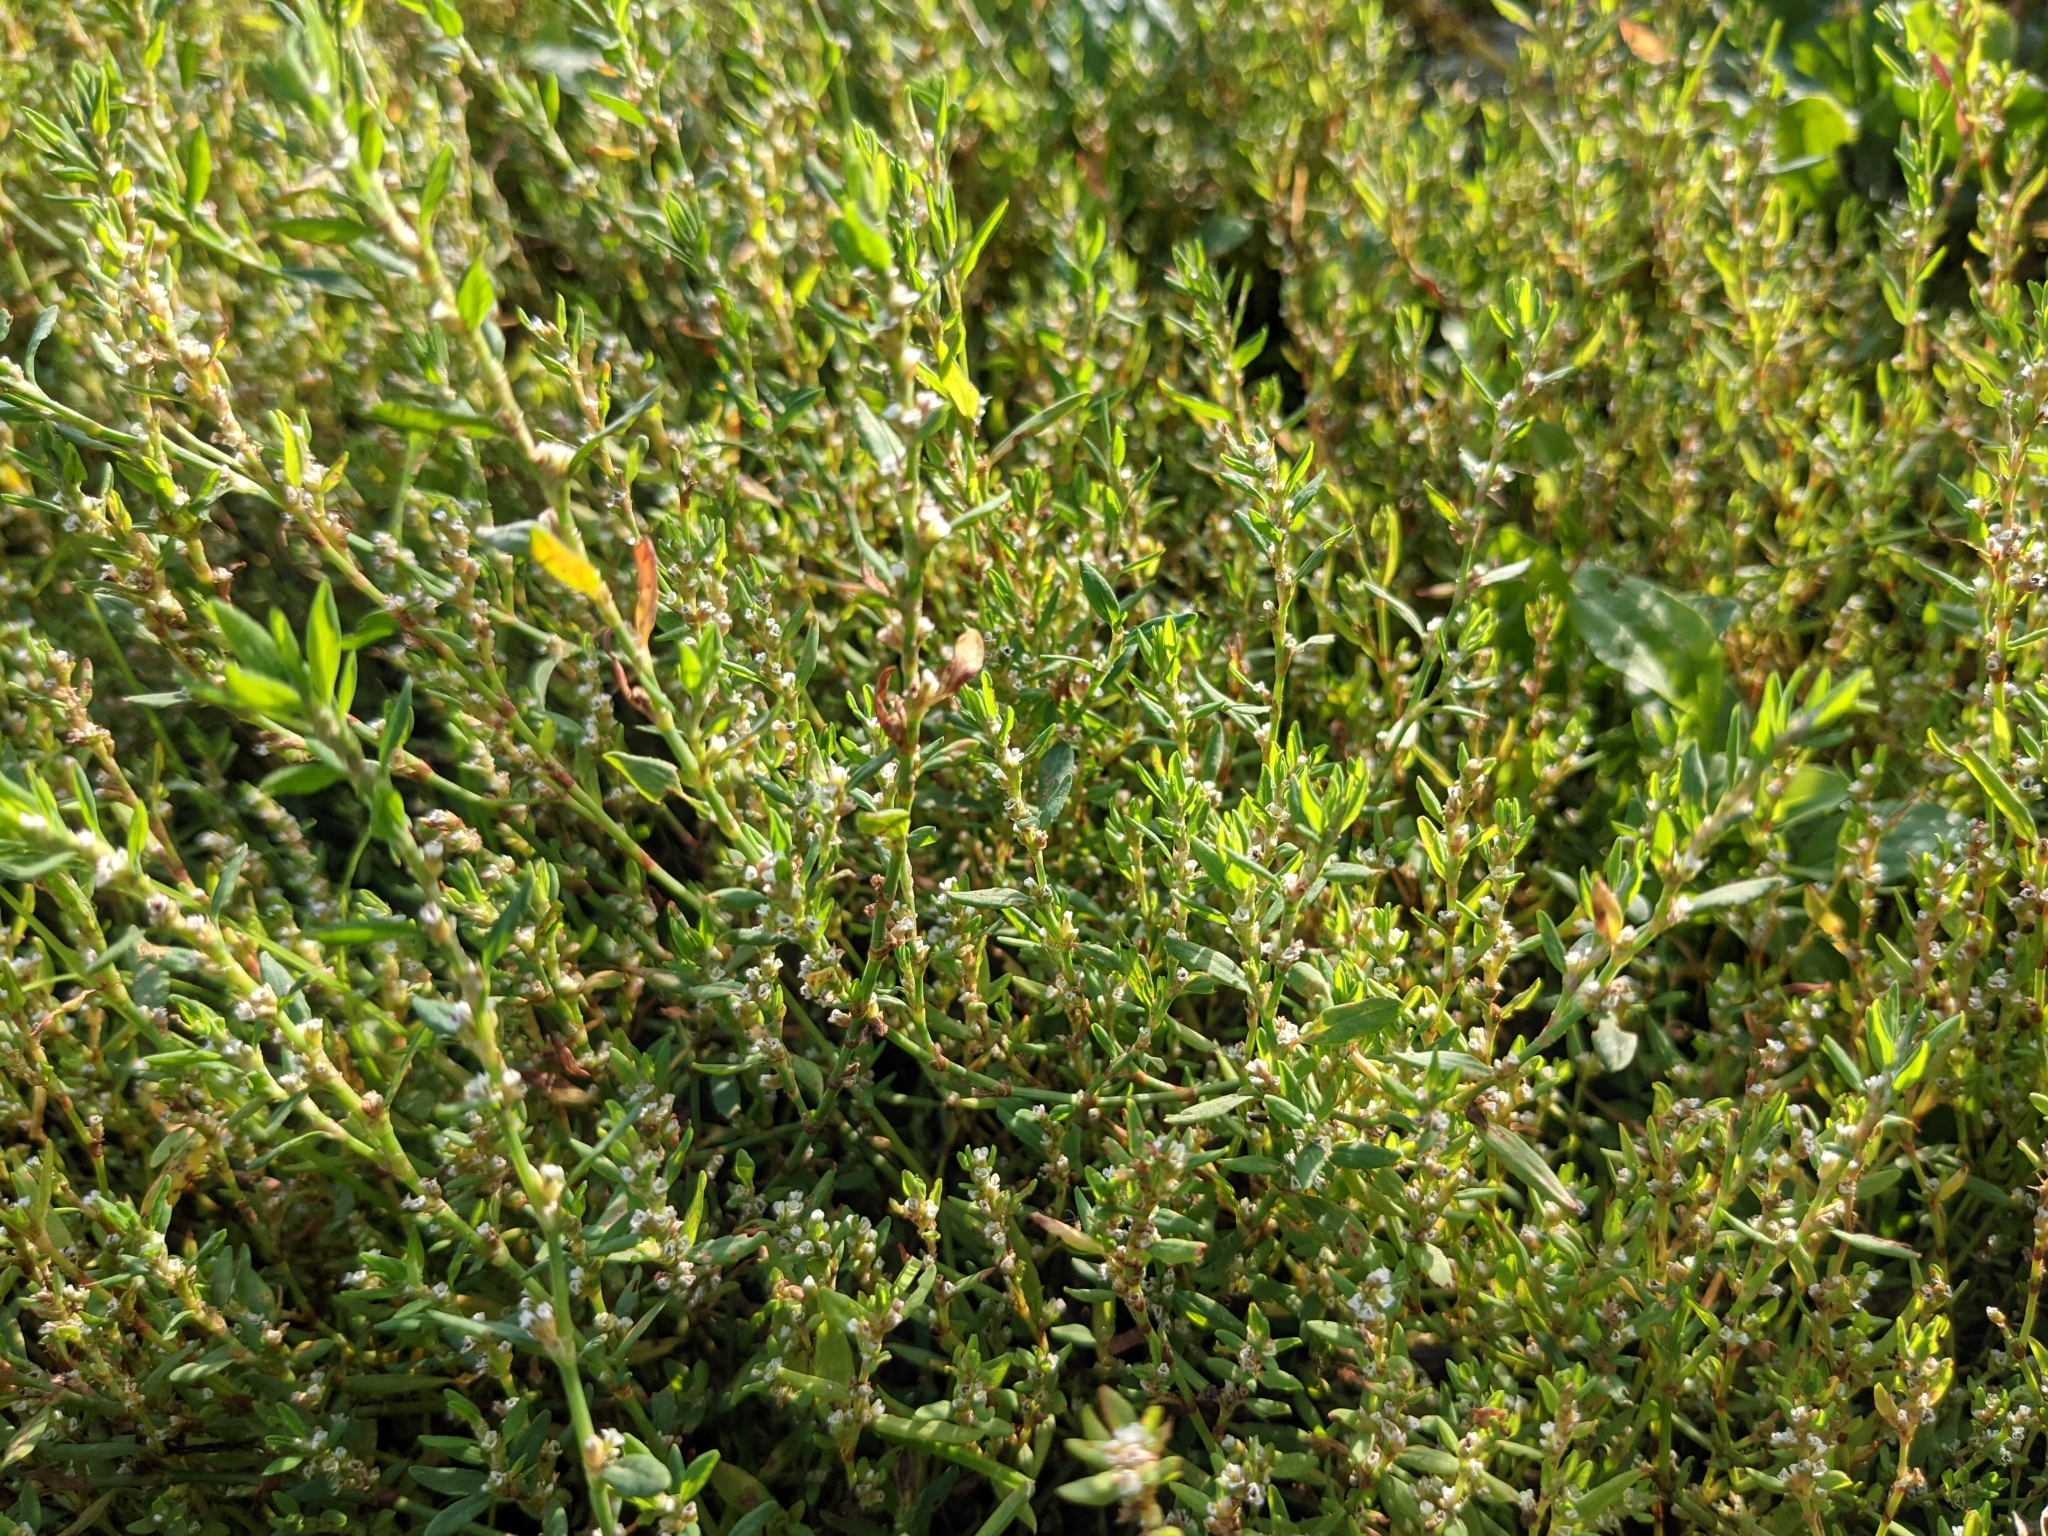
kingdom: Plantae
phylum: Tracheophyta
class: Magnoliopsida
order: Caryophyllales
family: Polygonaceae
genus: Polygonum
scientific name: Polygonum
